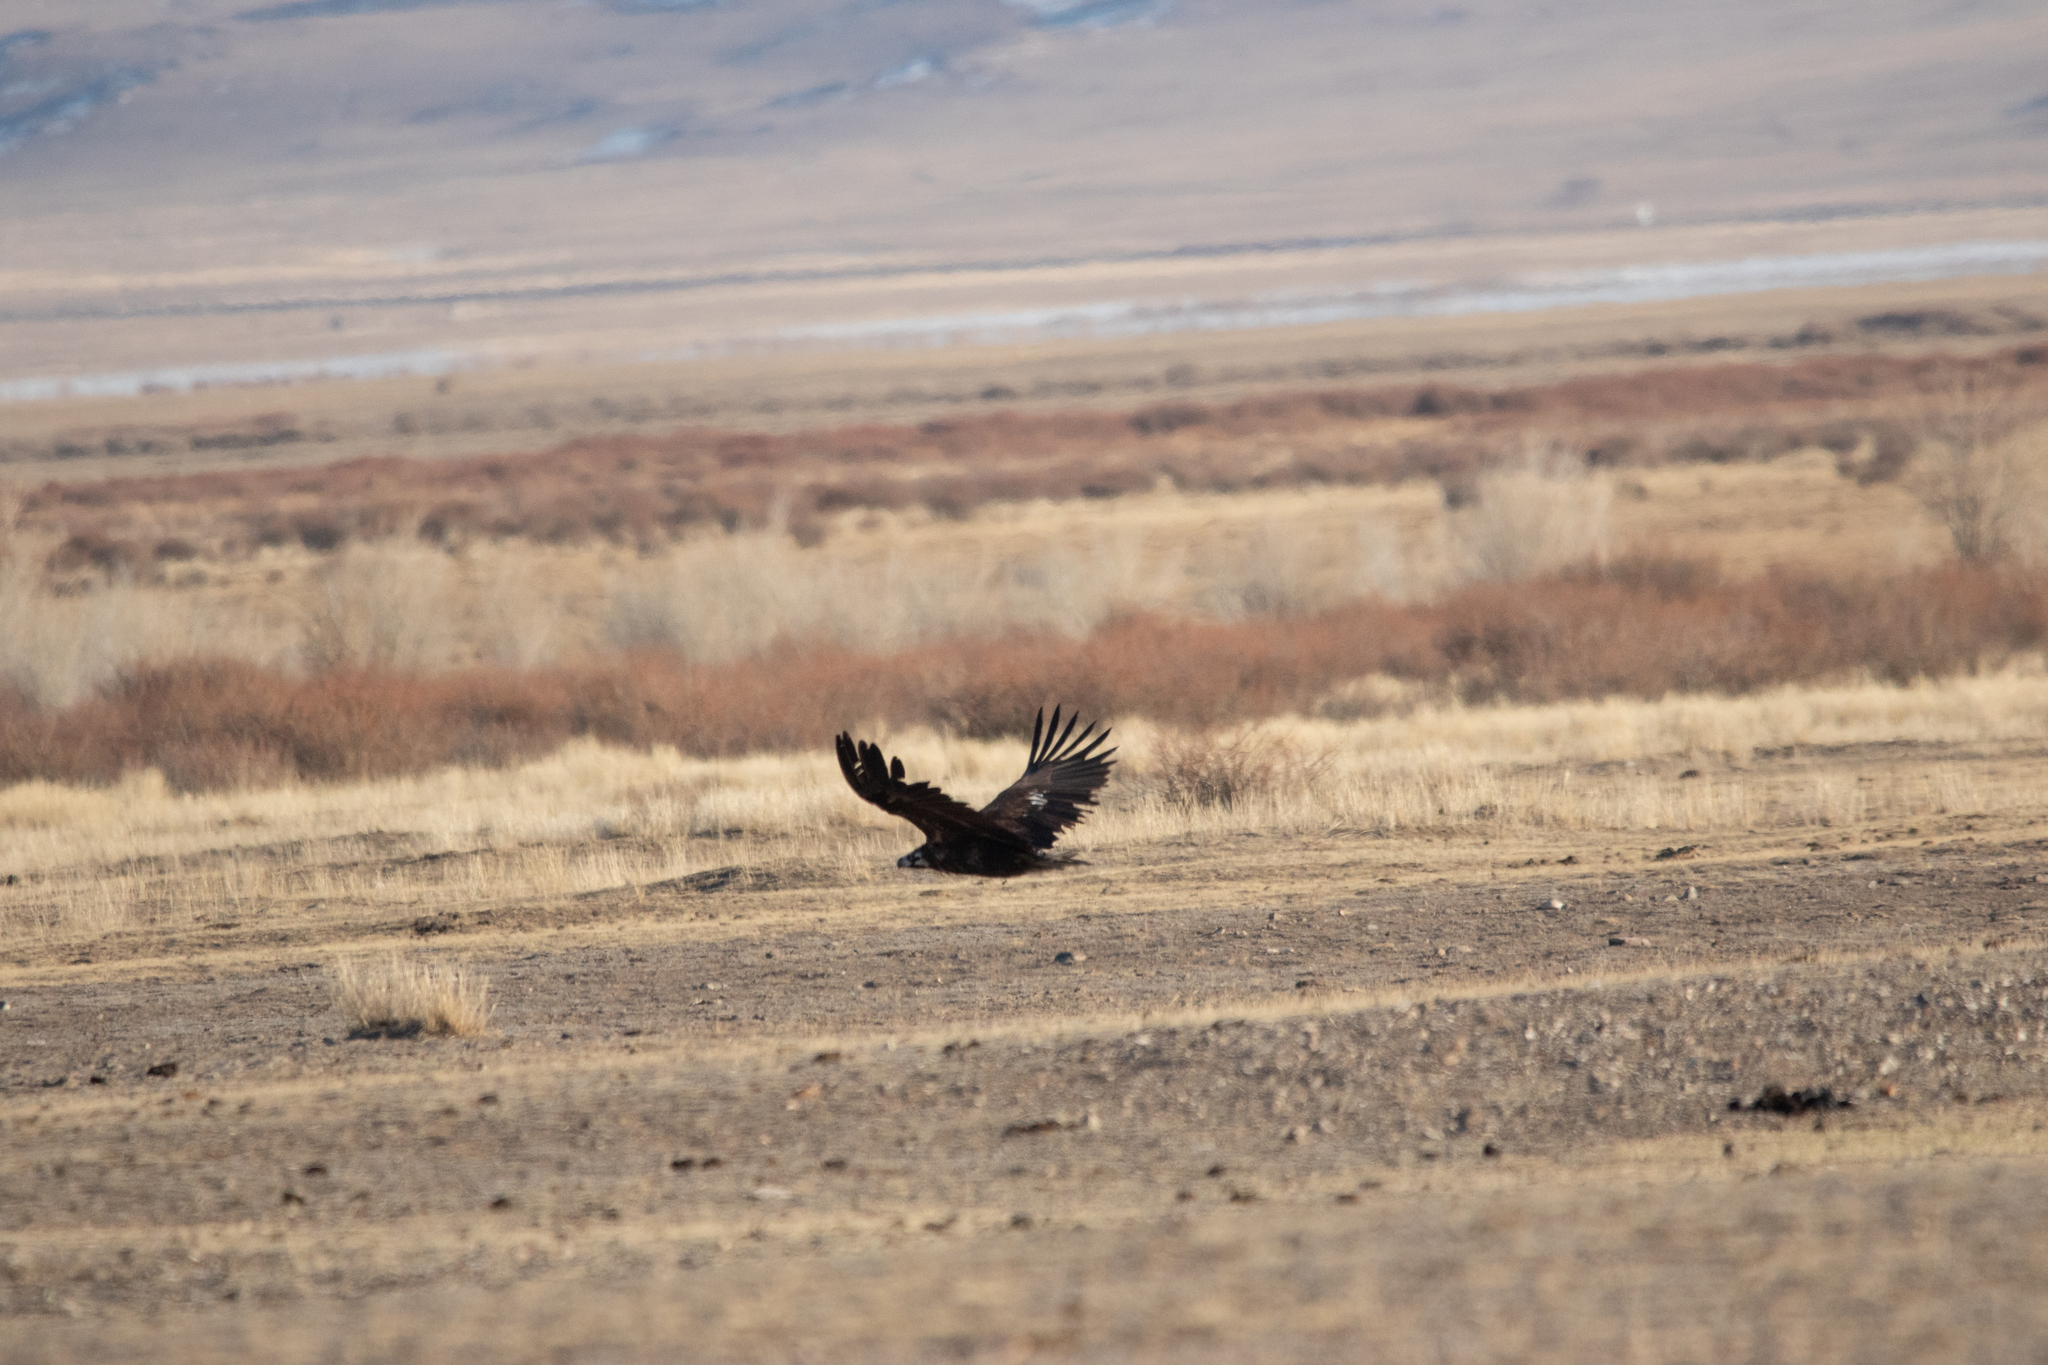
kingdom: Animalia
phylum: Chordata
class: Aves
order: Accipitriformes
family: Accipitridae
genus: Aegypius
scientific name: Aegypius monachus
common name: Cinereous vulture
